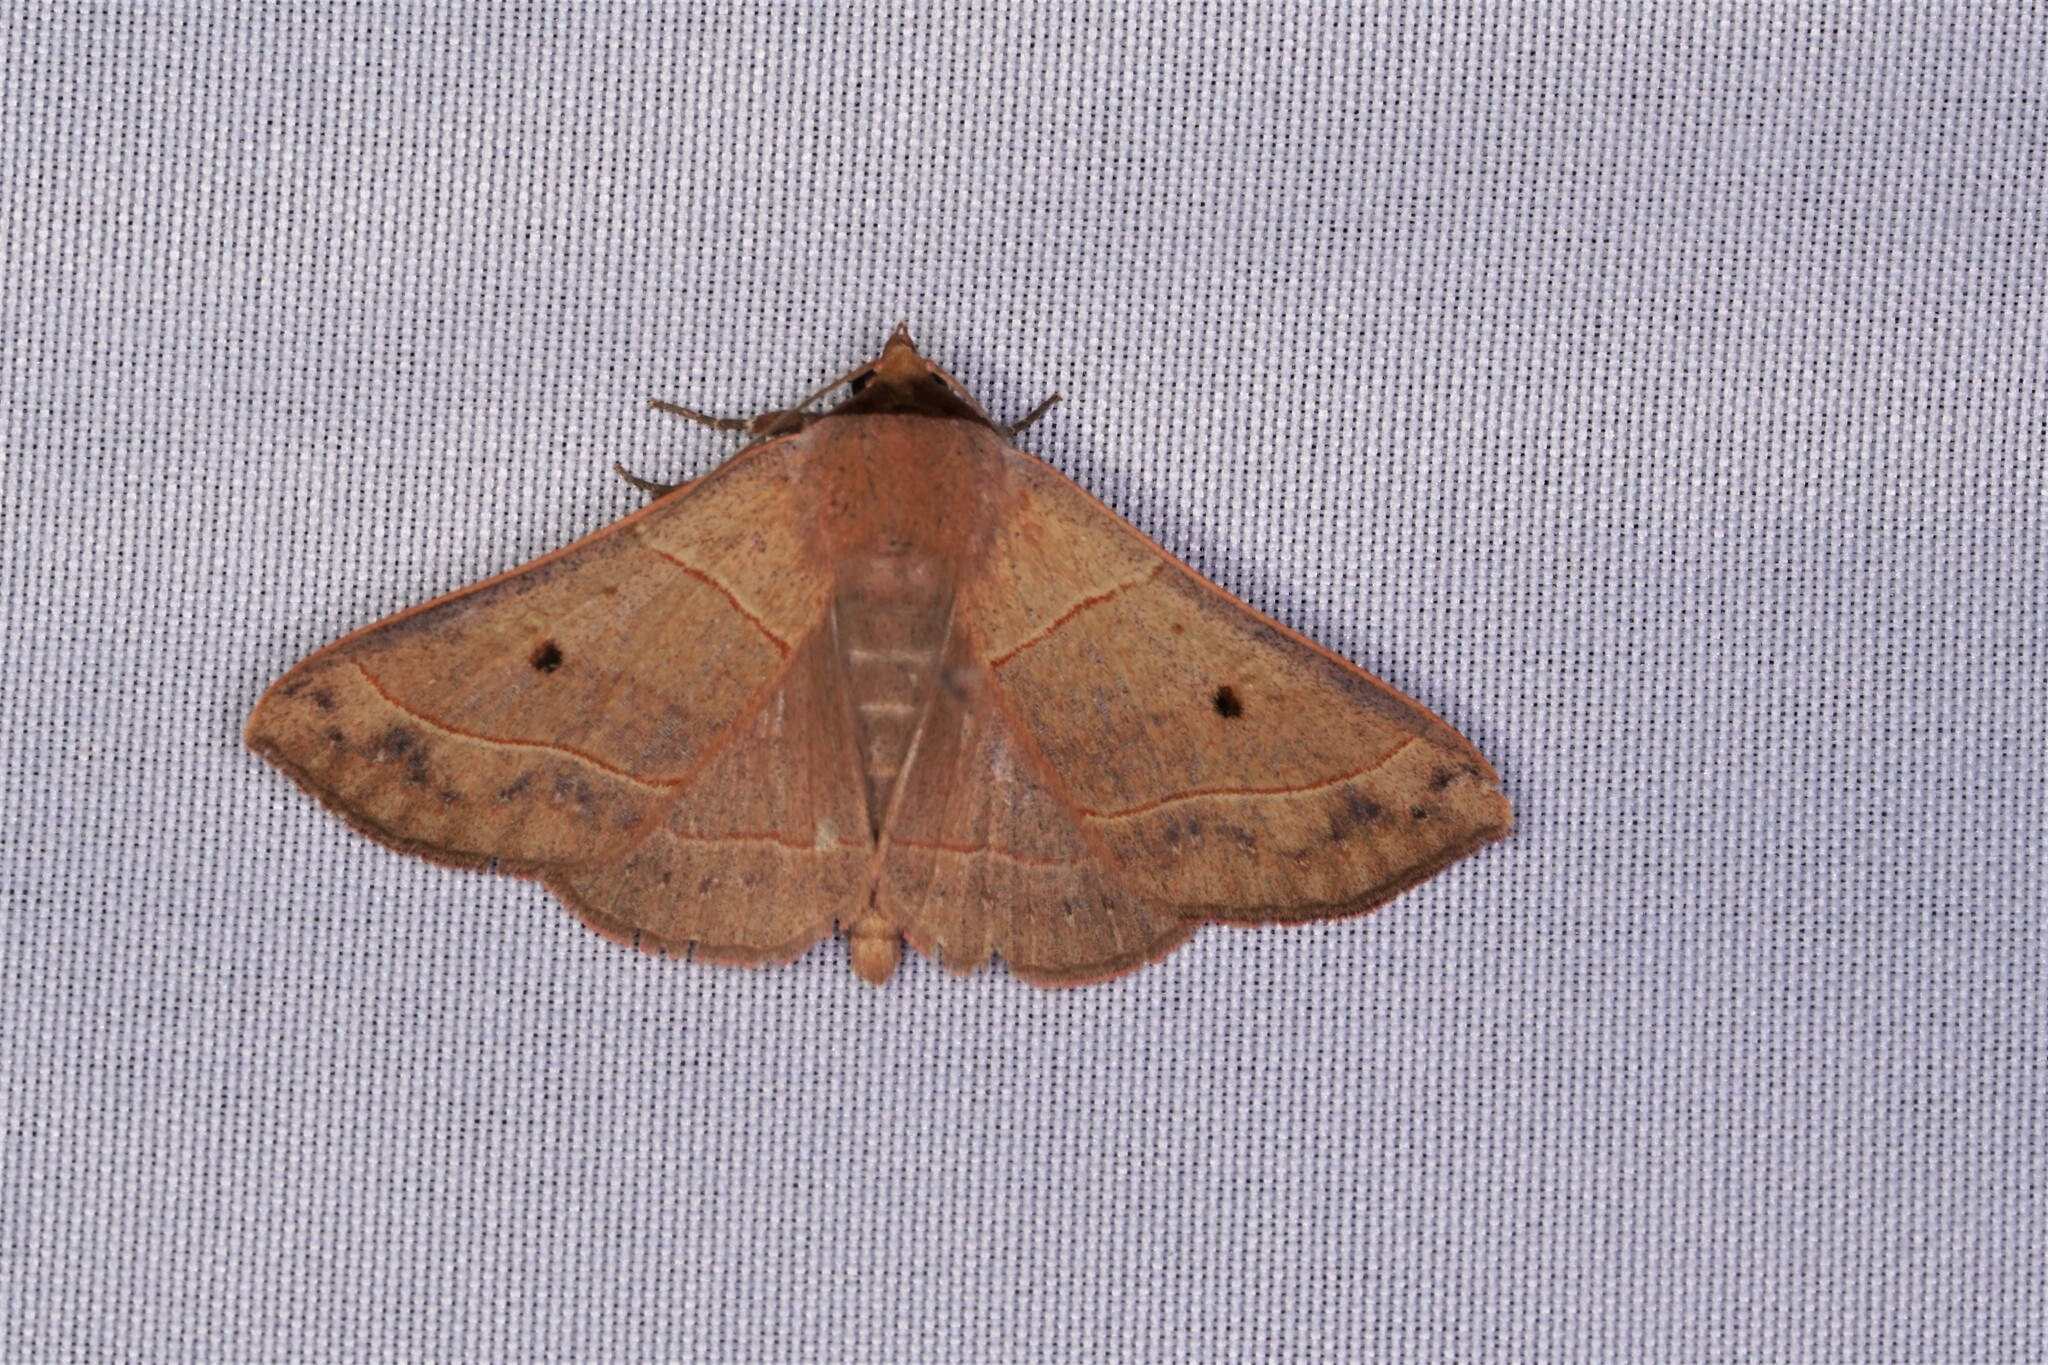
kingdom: Animalia
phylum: Arthropoda
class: Insecta
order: Lepidoptera
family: Erebidae
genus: Panopoda
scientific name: Panopoda rufimargo
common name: Red-lined panopoda moth
